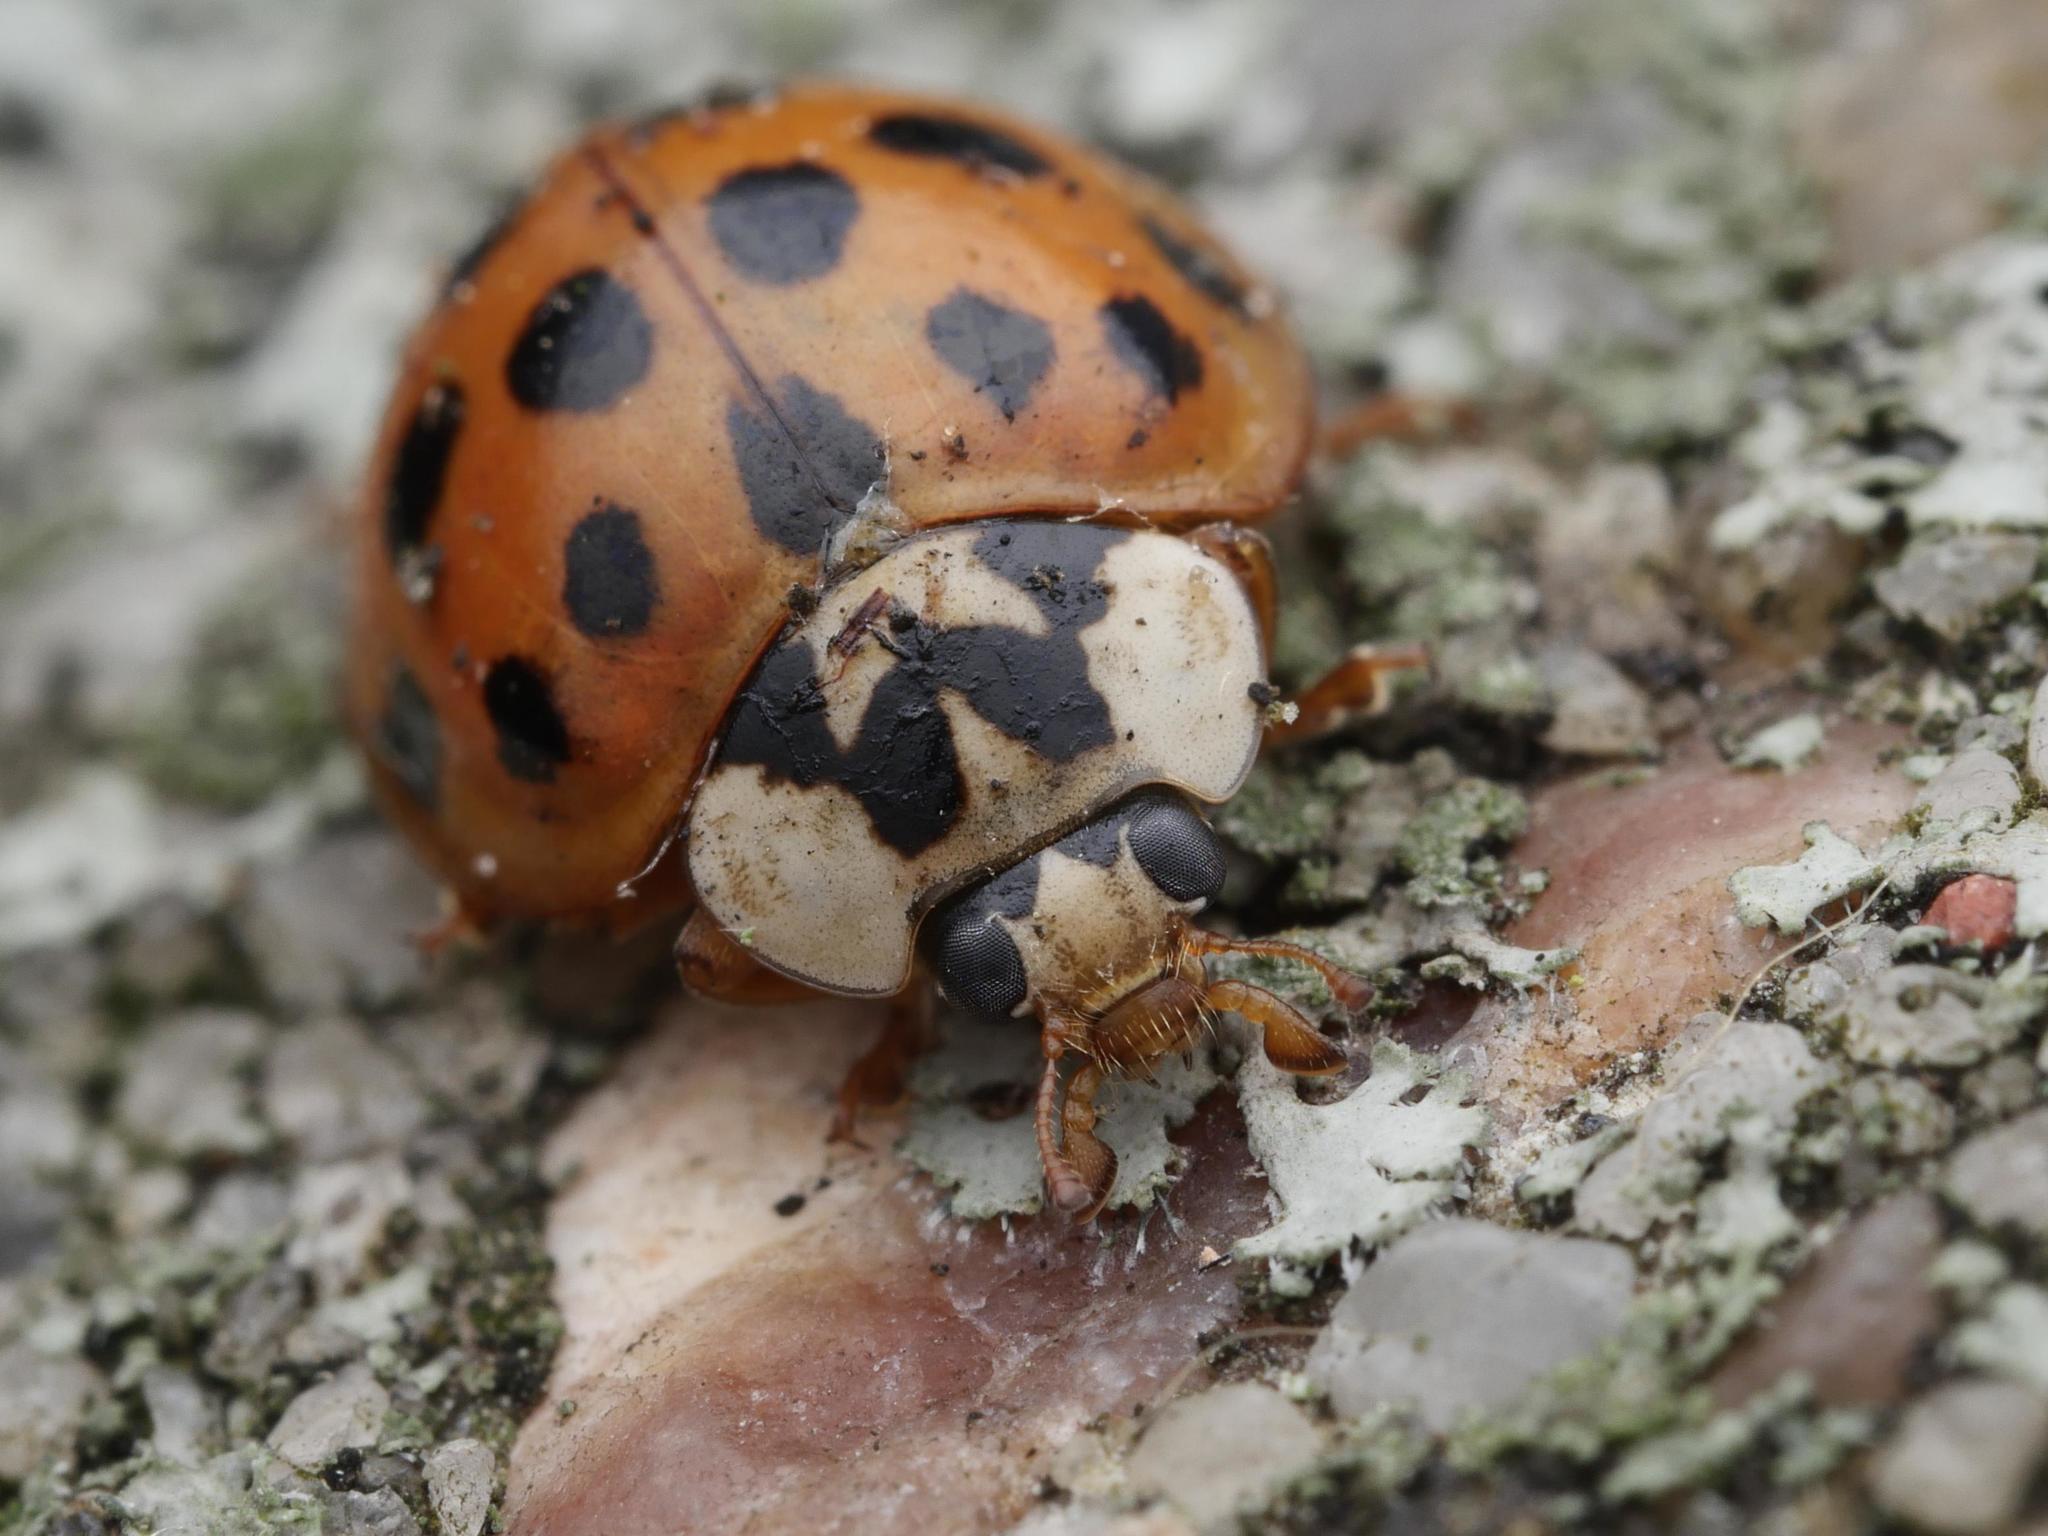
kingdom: Animalia
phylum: Arthropoda
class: Insecta
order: Coleoptera
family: Coccinellidae
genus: Harmonia
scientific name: Harmonia axyridis
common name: Harlequin ladybird
